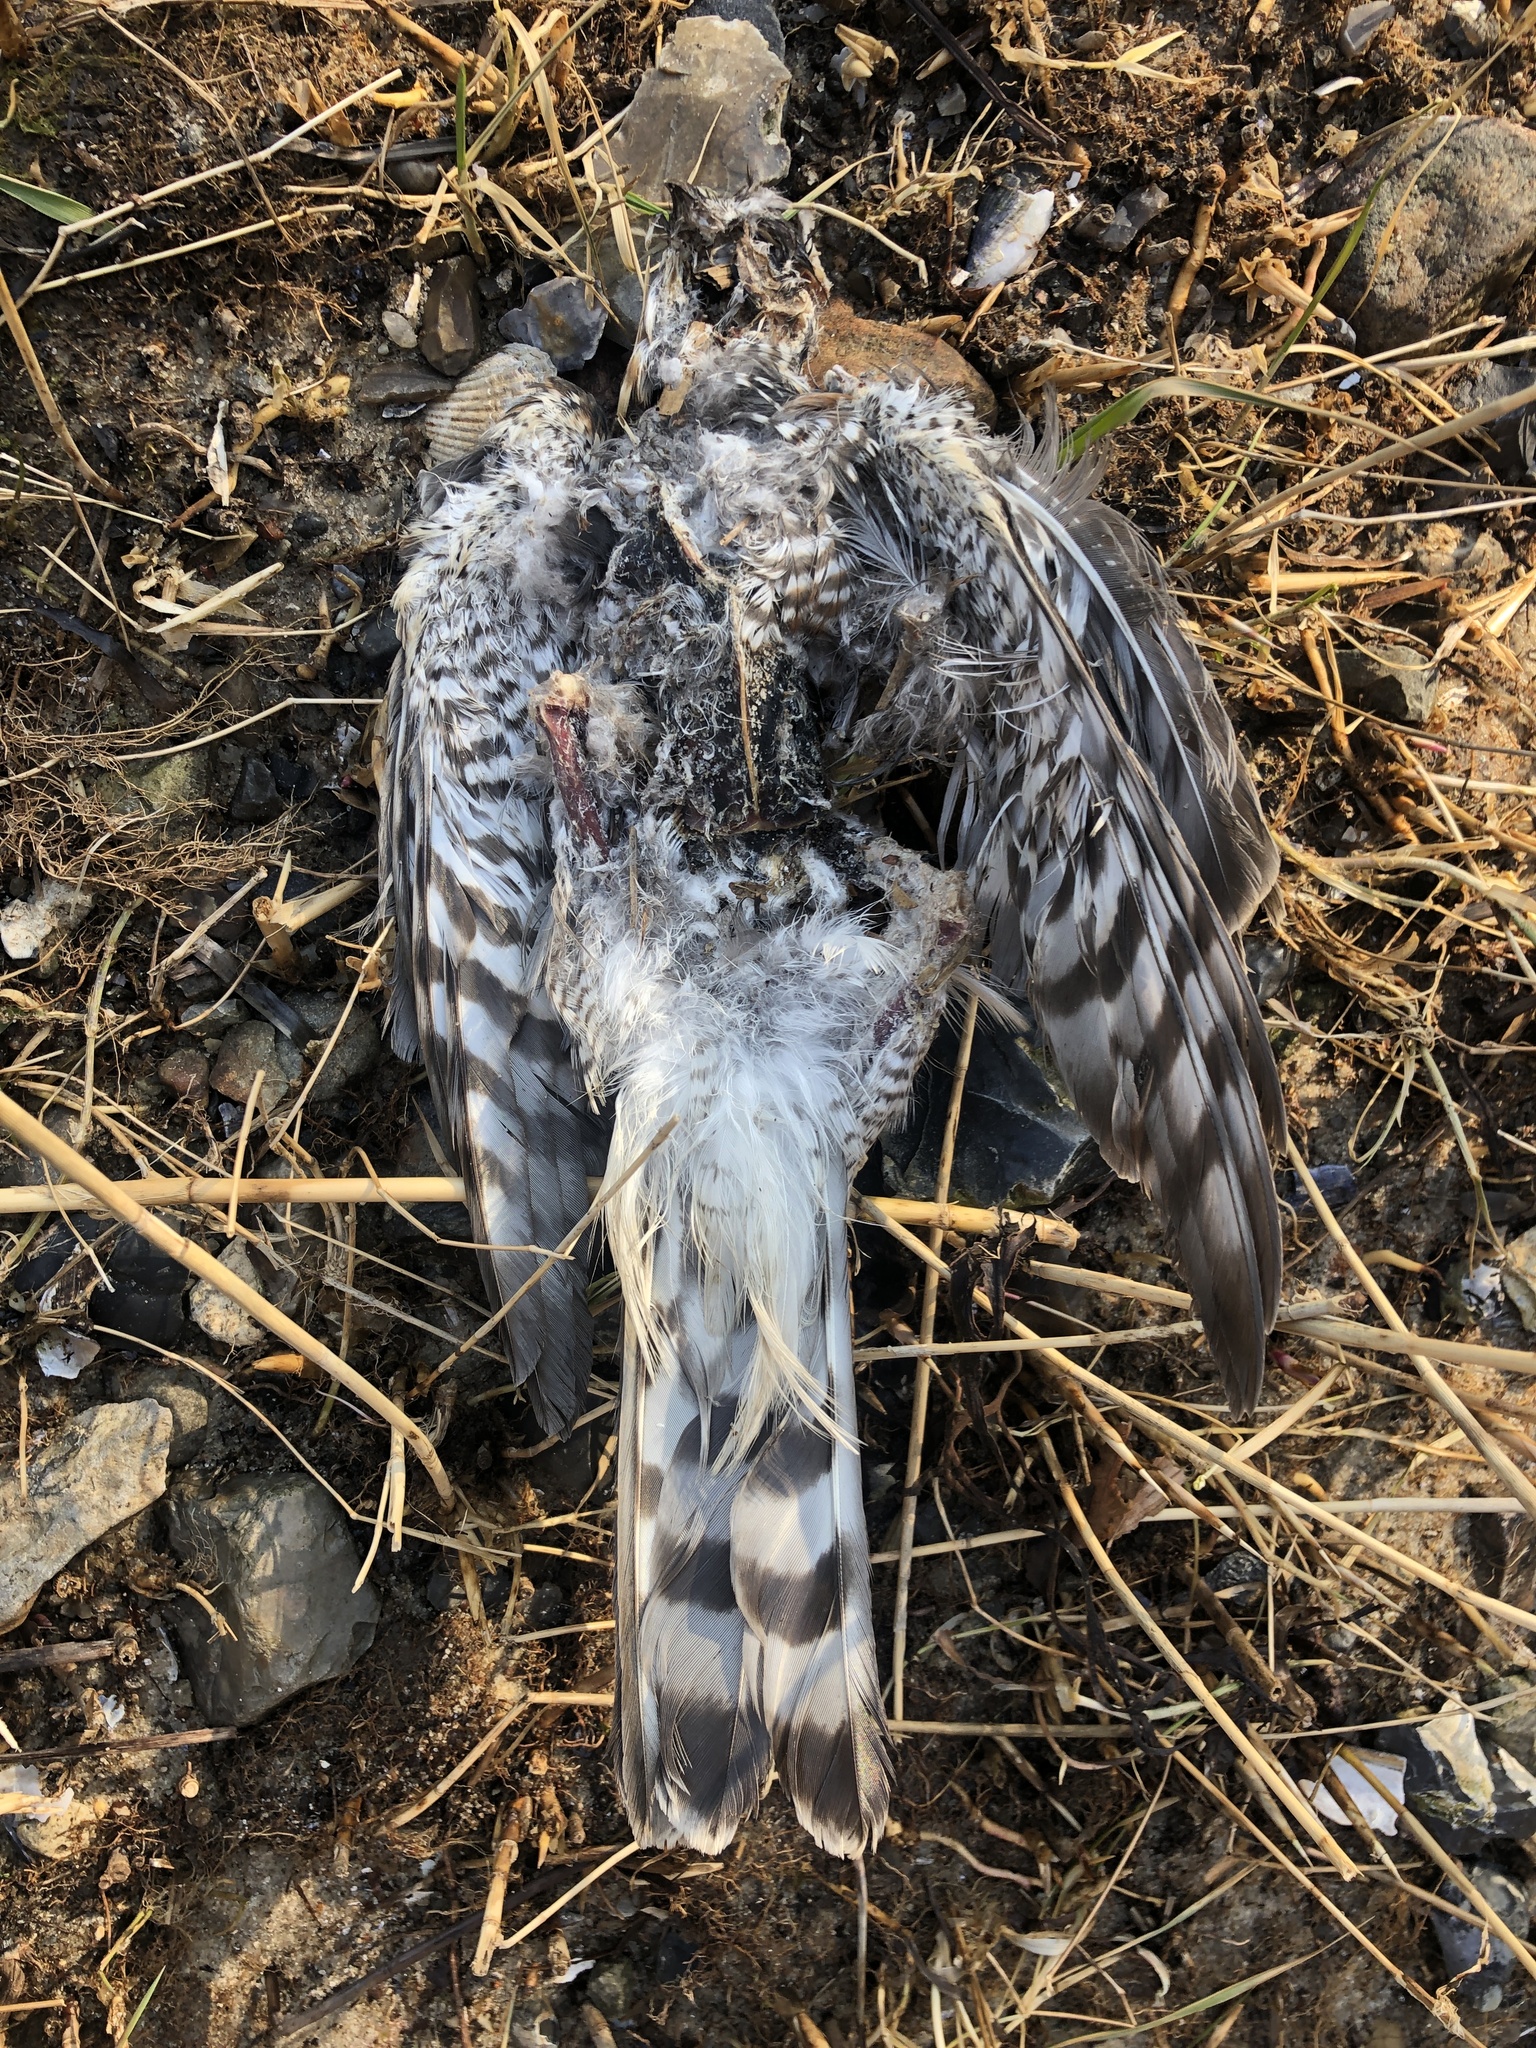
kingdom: Animalia
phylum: Chordata
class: Aves
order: Accipitriformes
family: Accipitridae
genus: Accipiter
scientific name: Accipiter nisus
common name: Eurasian sparrowhawk
